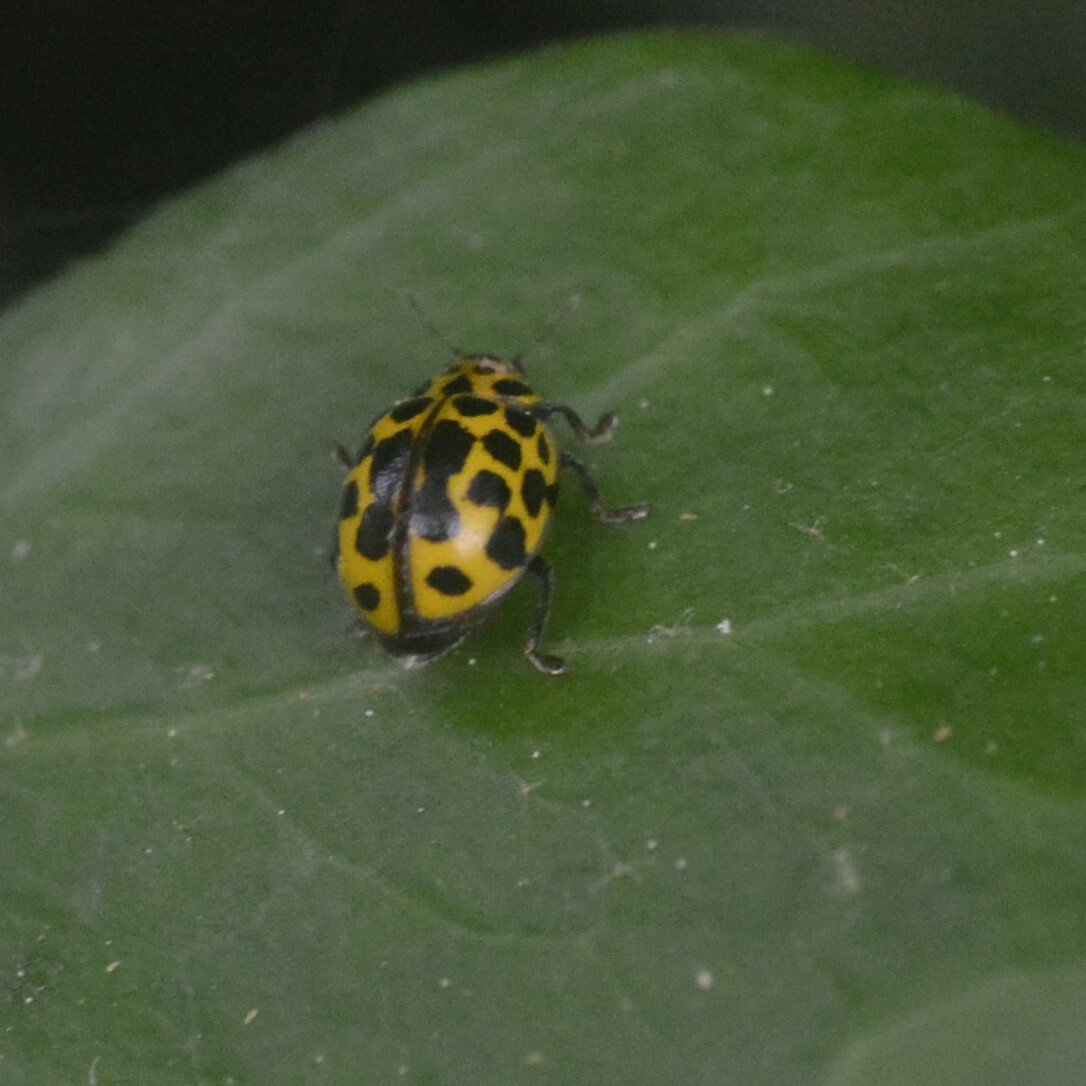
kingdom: Animalia
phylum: Arthropoda
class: Insecta
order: Coleoptera
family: Coccinellidae
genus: Psyllobora
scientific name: Psyllobora vigintiduopunctata
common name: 22-spot ladybird
